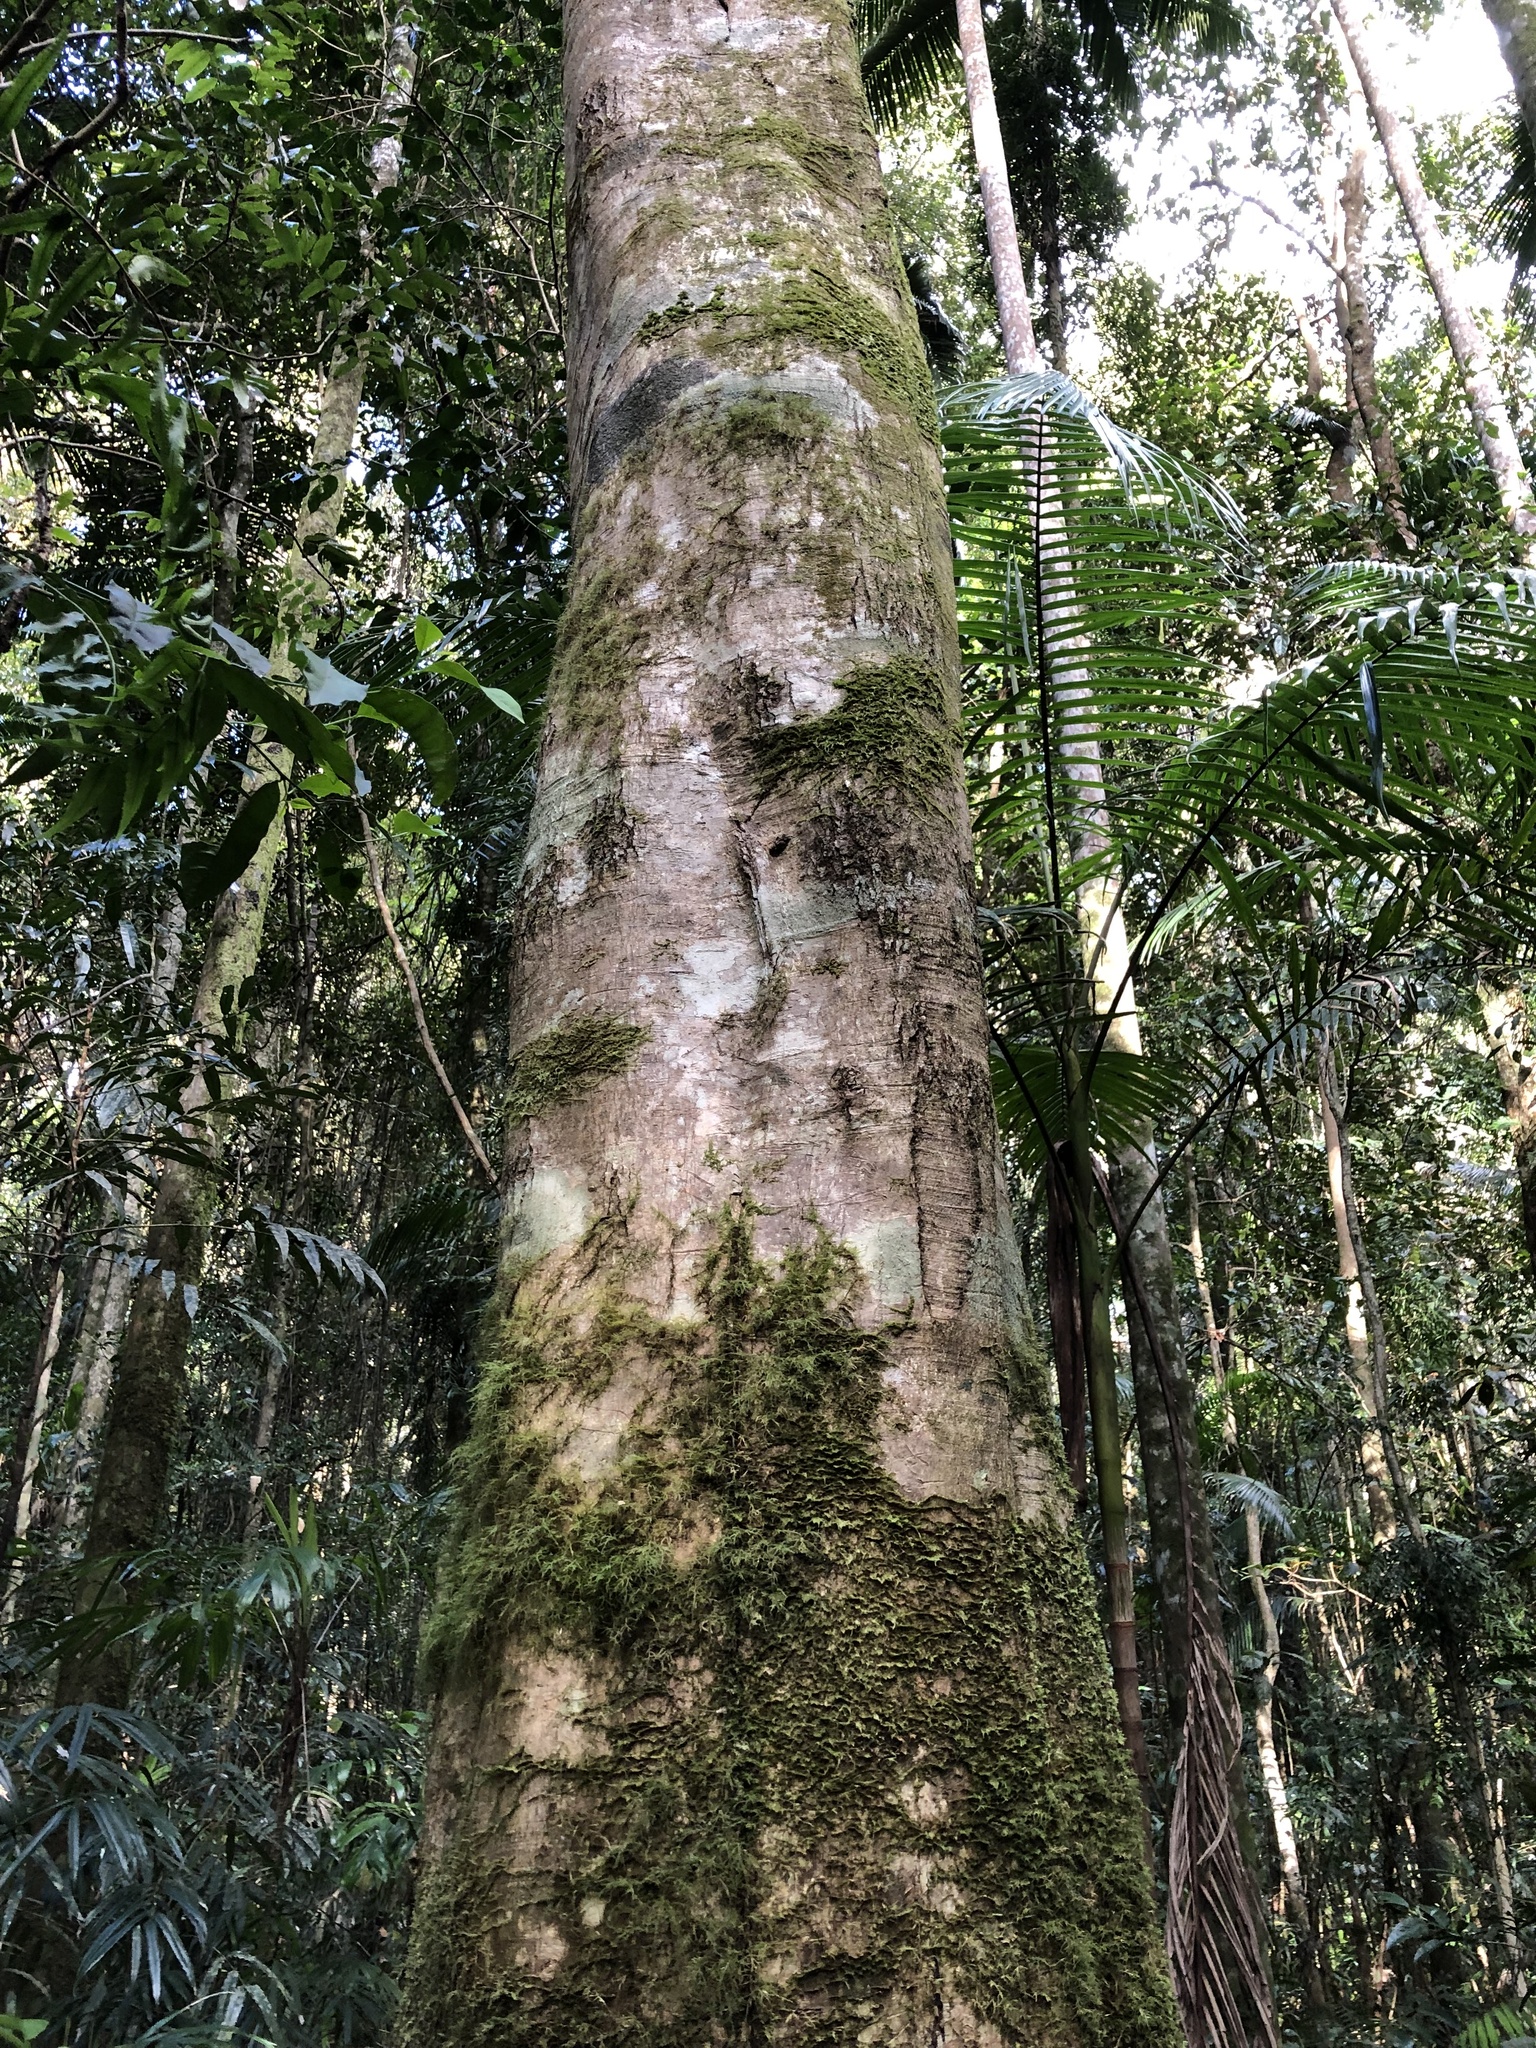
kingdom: Plantae
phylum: Tracheophyta
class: Magnoliopsida
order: Myrtales
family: Myrtaceae
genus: Syzygium
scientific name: Syzygium ingens
